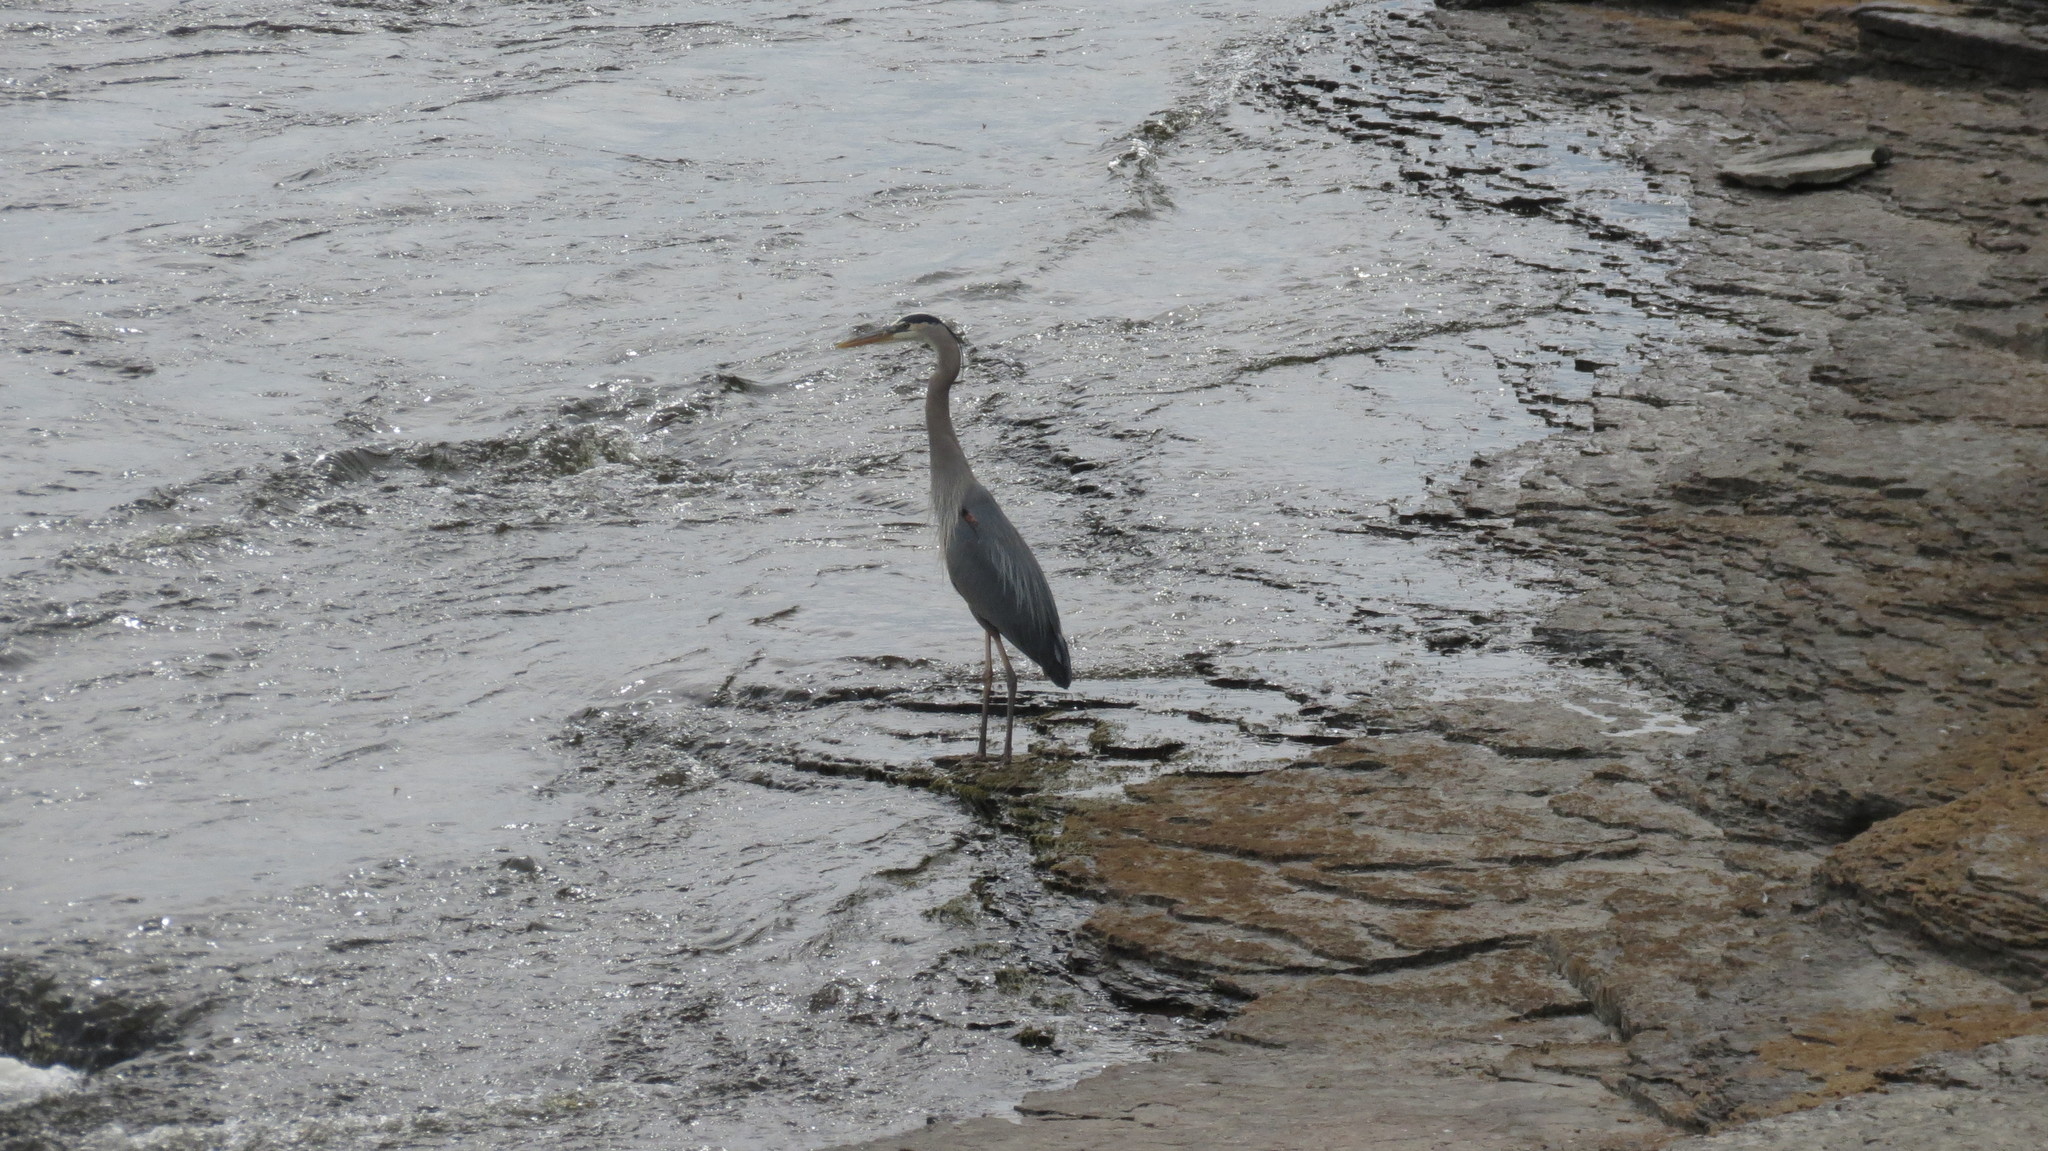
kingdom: Animalia
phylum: Chordata
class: Aves
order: Pelecaniformes
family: Ardeidae
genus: Ardea
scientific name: Ardea herodias
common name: Great blue heron
